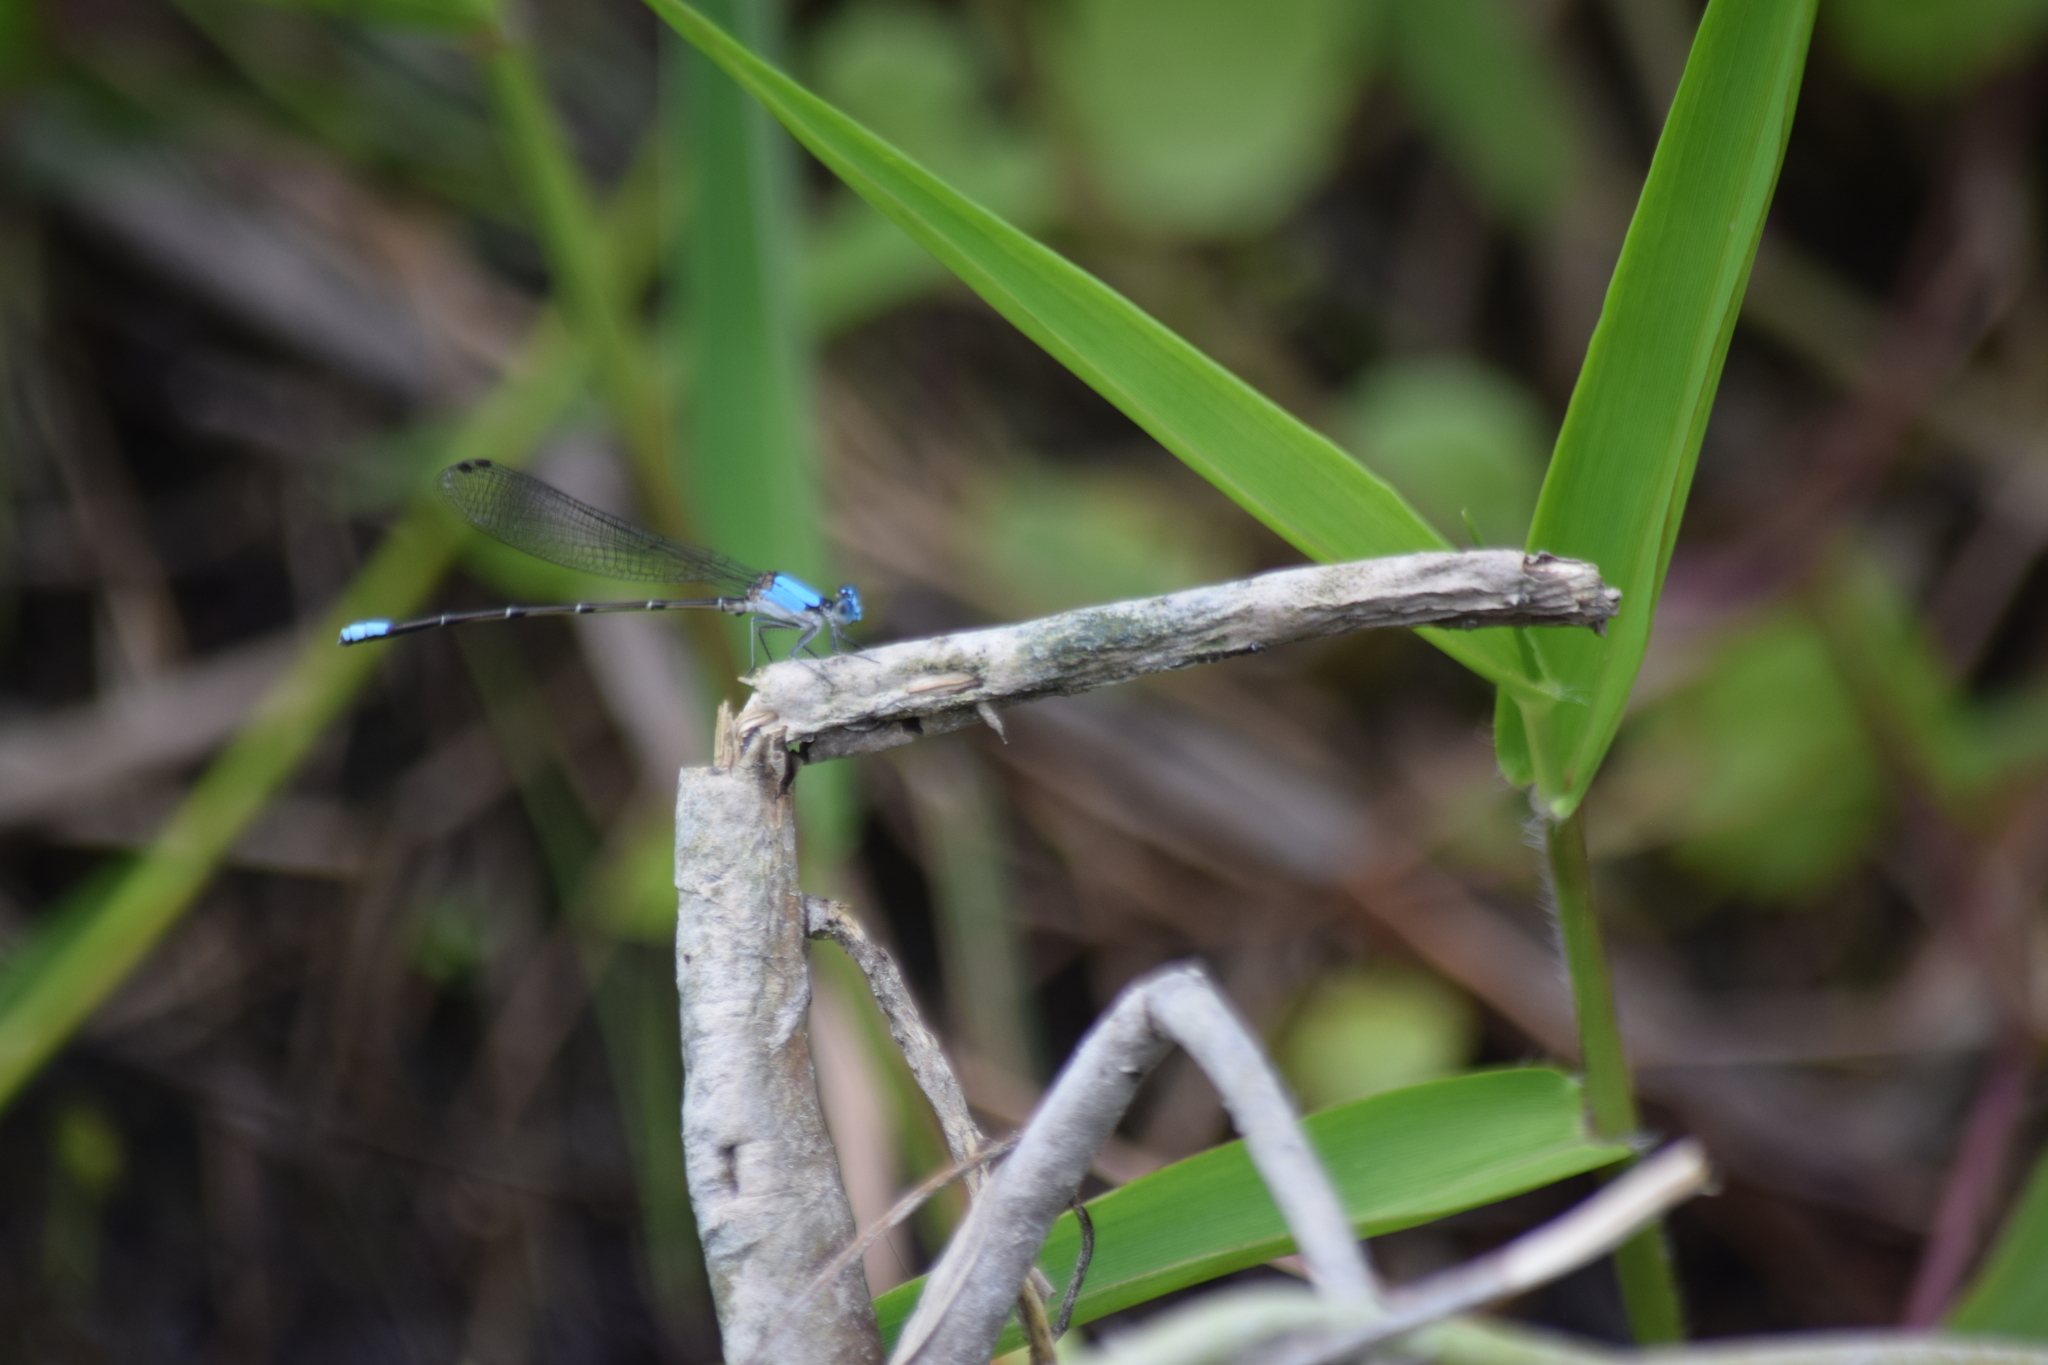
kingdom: Animalia
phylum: Arthropoda
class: Insecta
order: Odonata
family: Coenagrionidae
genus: Argia
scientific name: Argia apicalis
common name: Blue-fronted dancer
